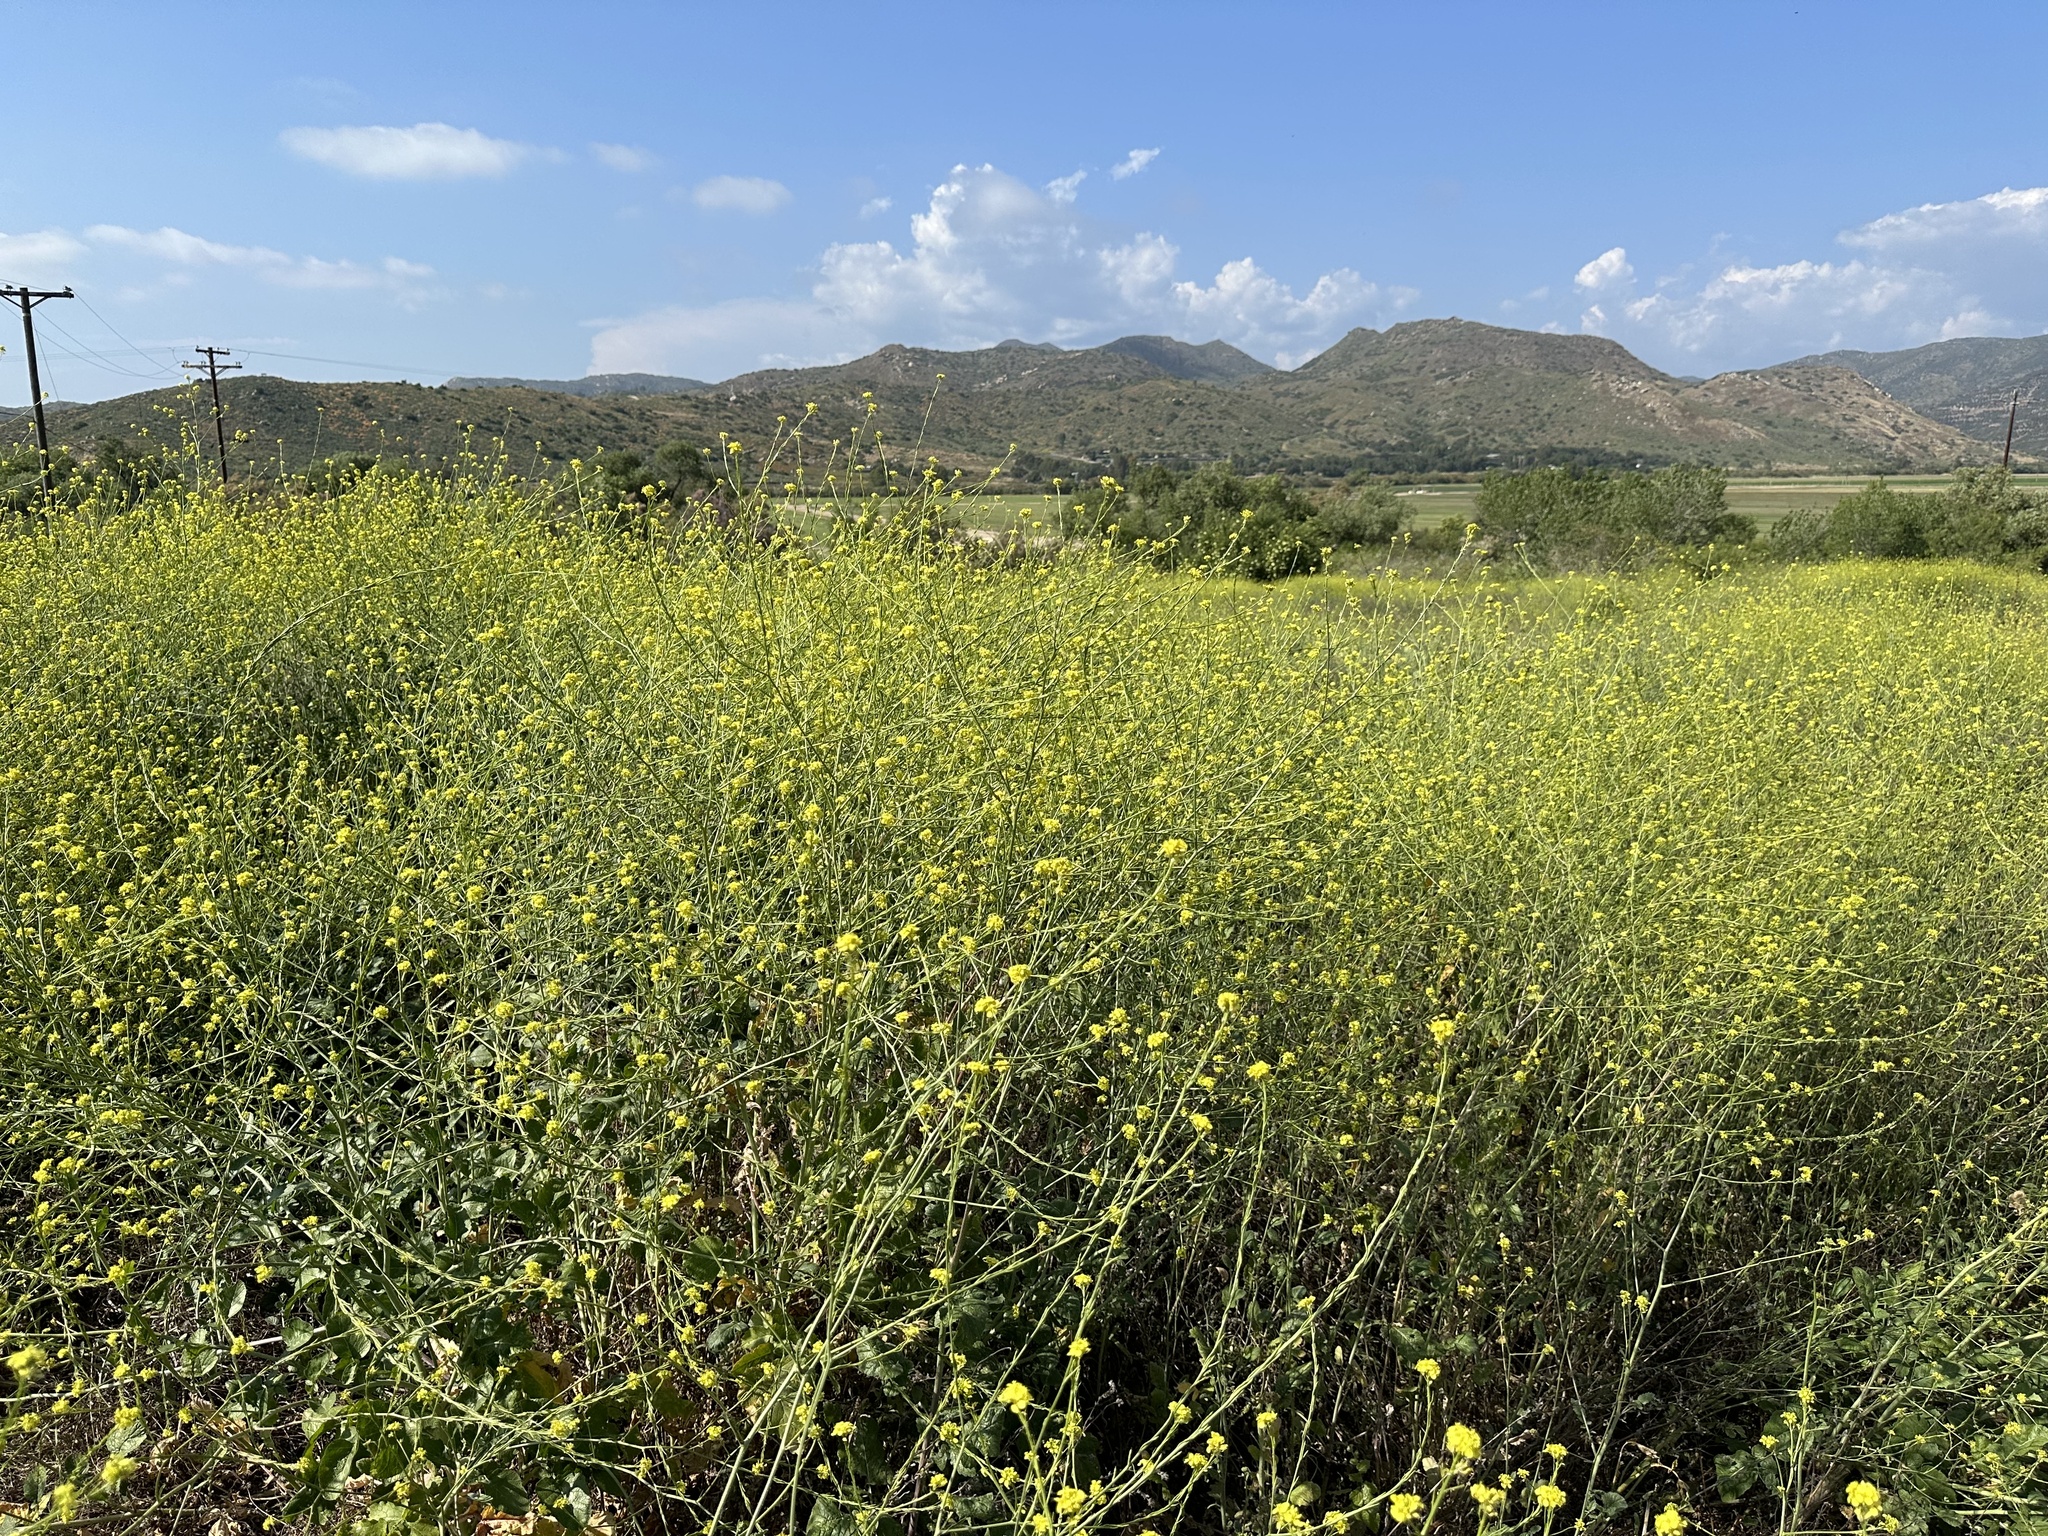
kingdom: Plantae
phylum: Tracheophyta
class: Magnoliopsida
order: Brassicales
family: Brassicaceae
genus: Hirschfeldia
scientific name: Hirschfeldia incana
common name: Hoary mustard
